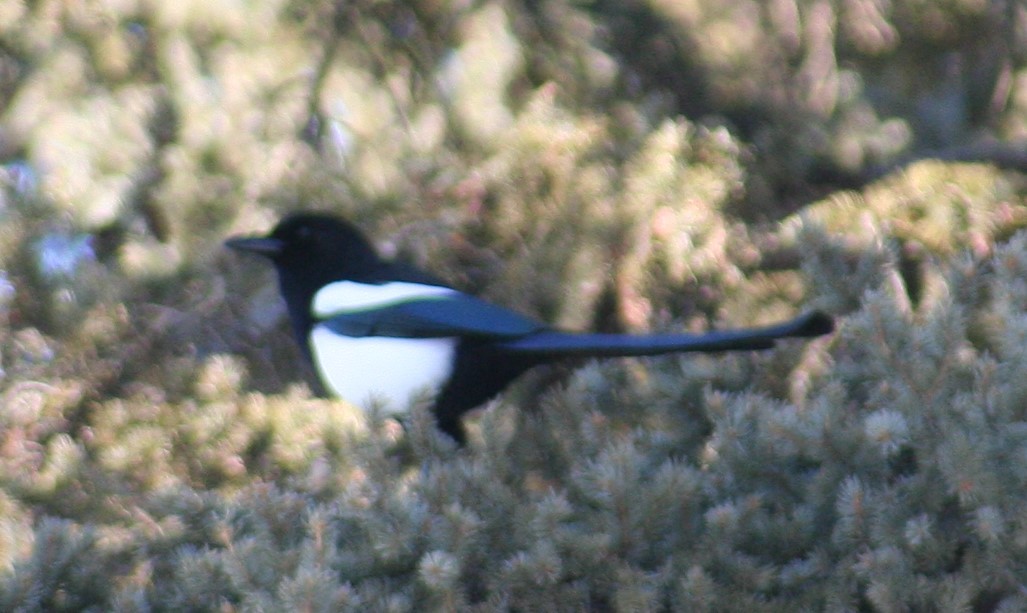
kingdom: Animalia
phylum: Chordata
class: Aves
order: Passeriformes
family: Corvidae
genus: Pica
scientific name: Pica hudsonia
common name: Black-billed magpie
